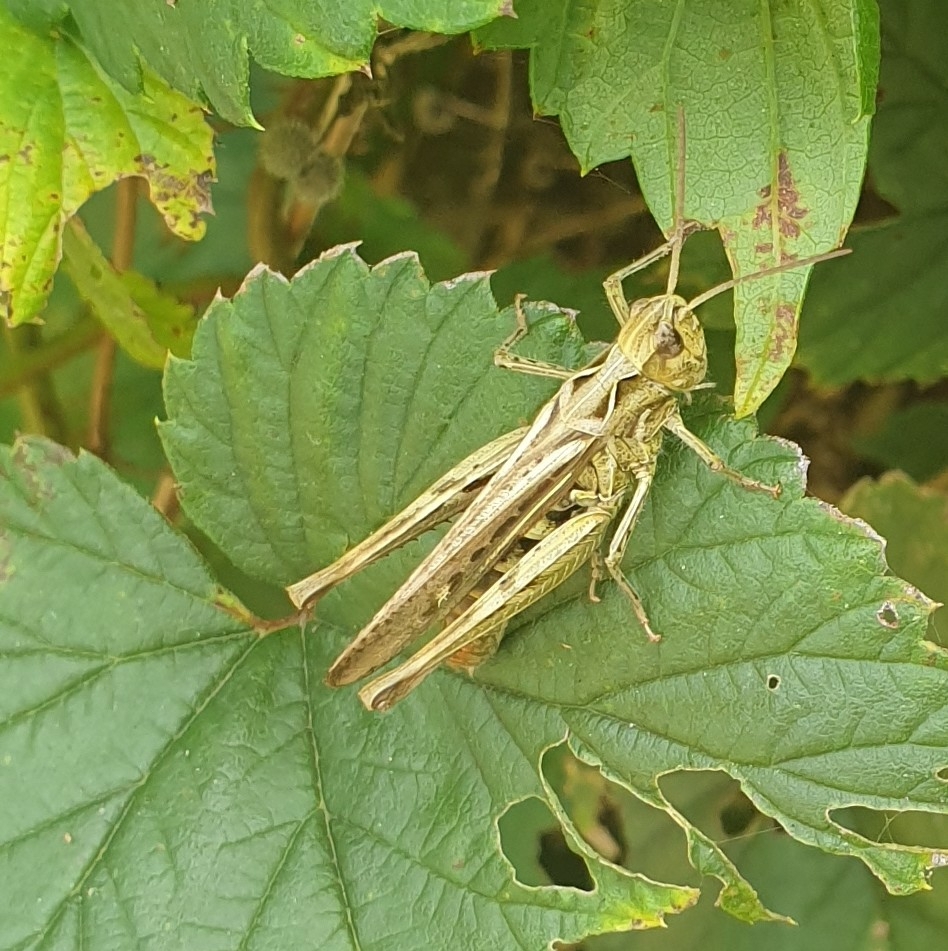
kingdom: Animalia
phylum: Arthropoda
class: Insecta
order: Orthoptera
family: Acrididae
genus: Chorthippus
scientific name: Chorthippus brunneus
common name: Field grasshopper
